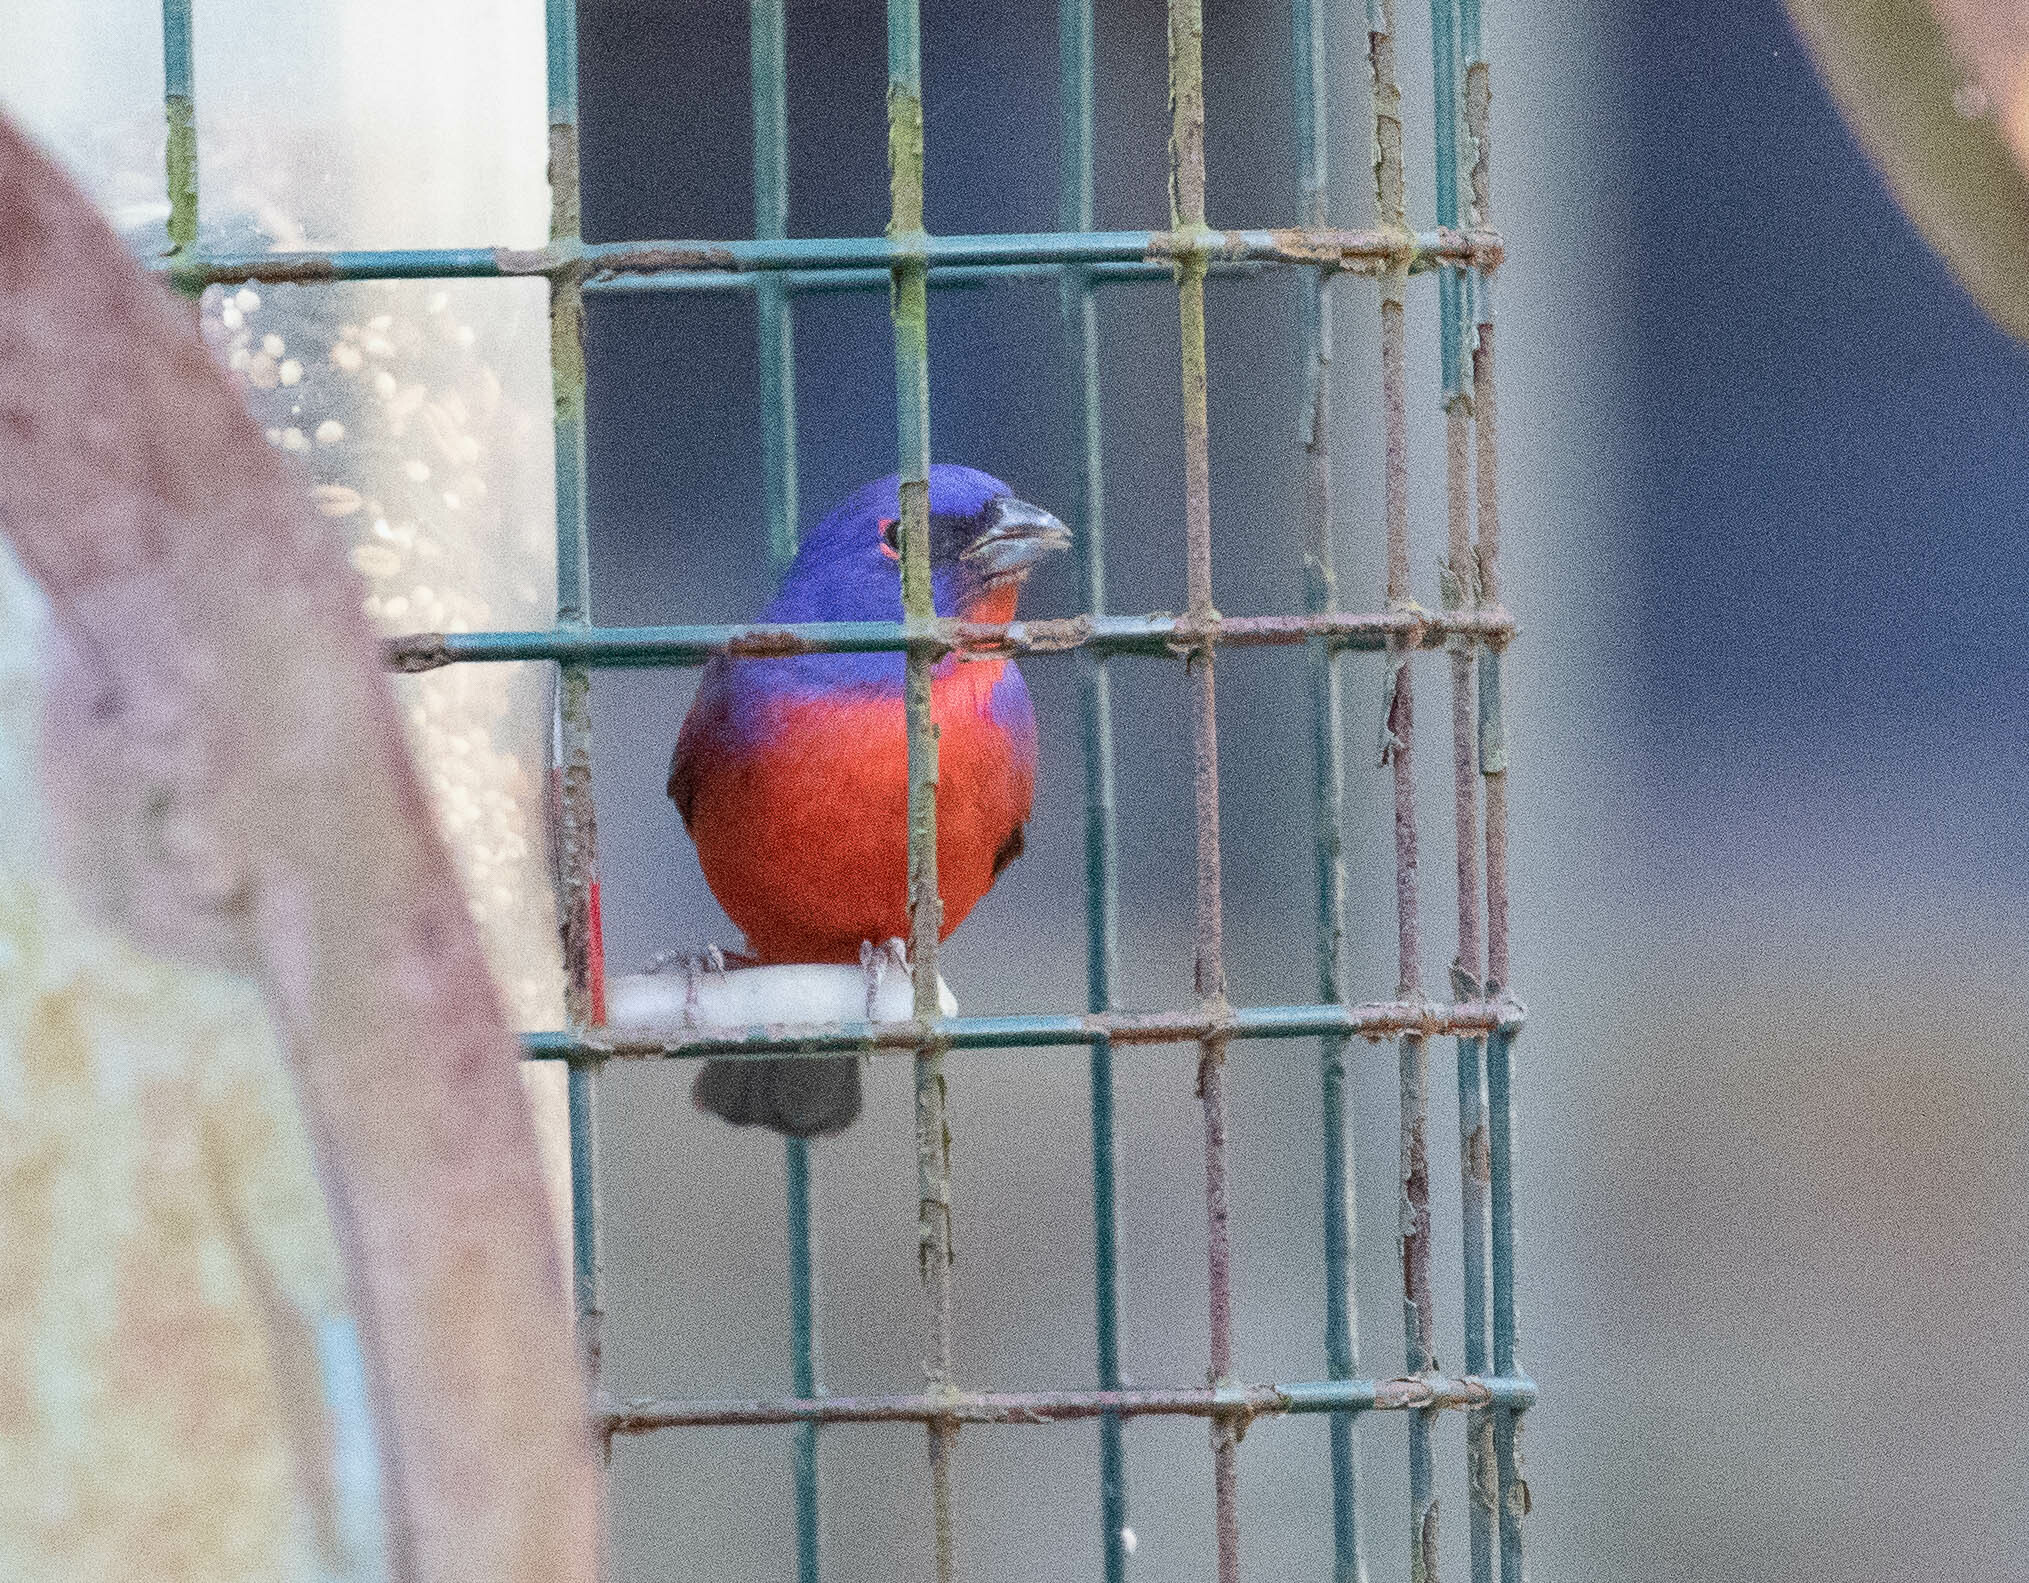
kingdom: Animalia
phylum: Chordata
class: Aves
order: Passeriformes
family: Cardinalidae
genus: Passerina
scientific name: Passerina ciris
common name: Painted bunting
